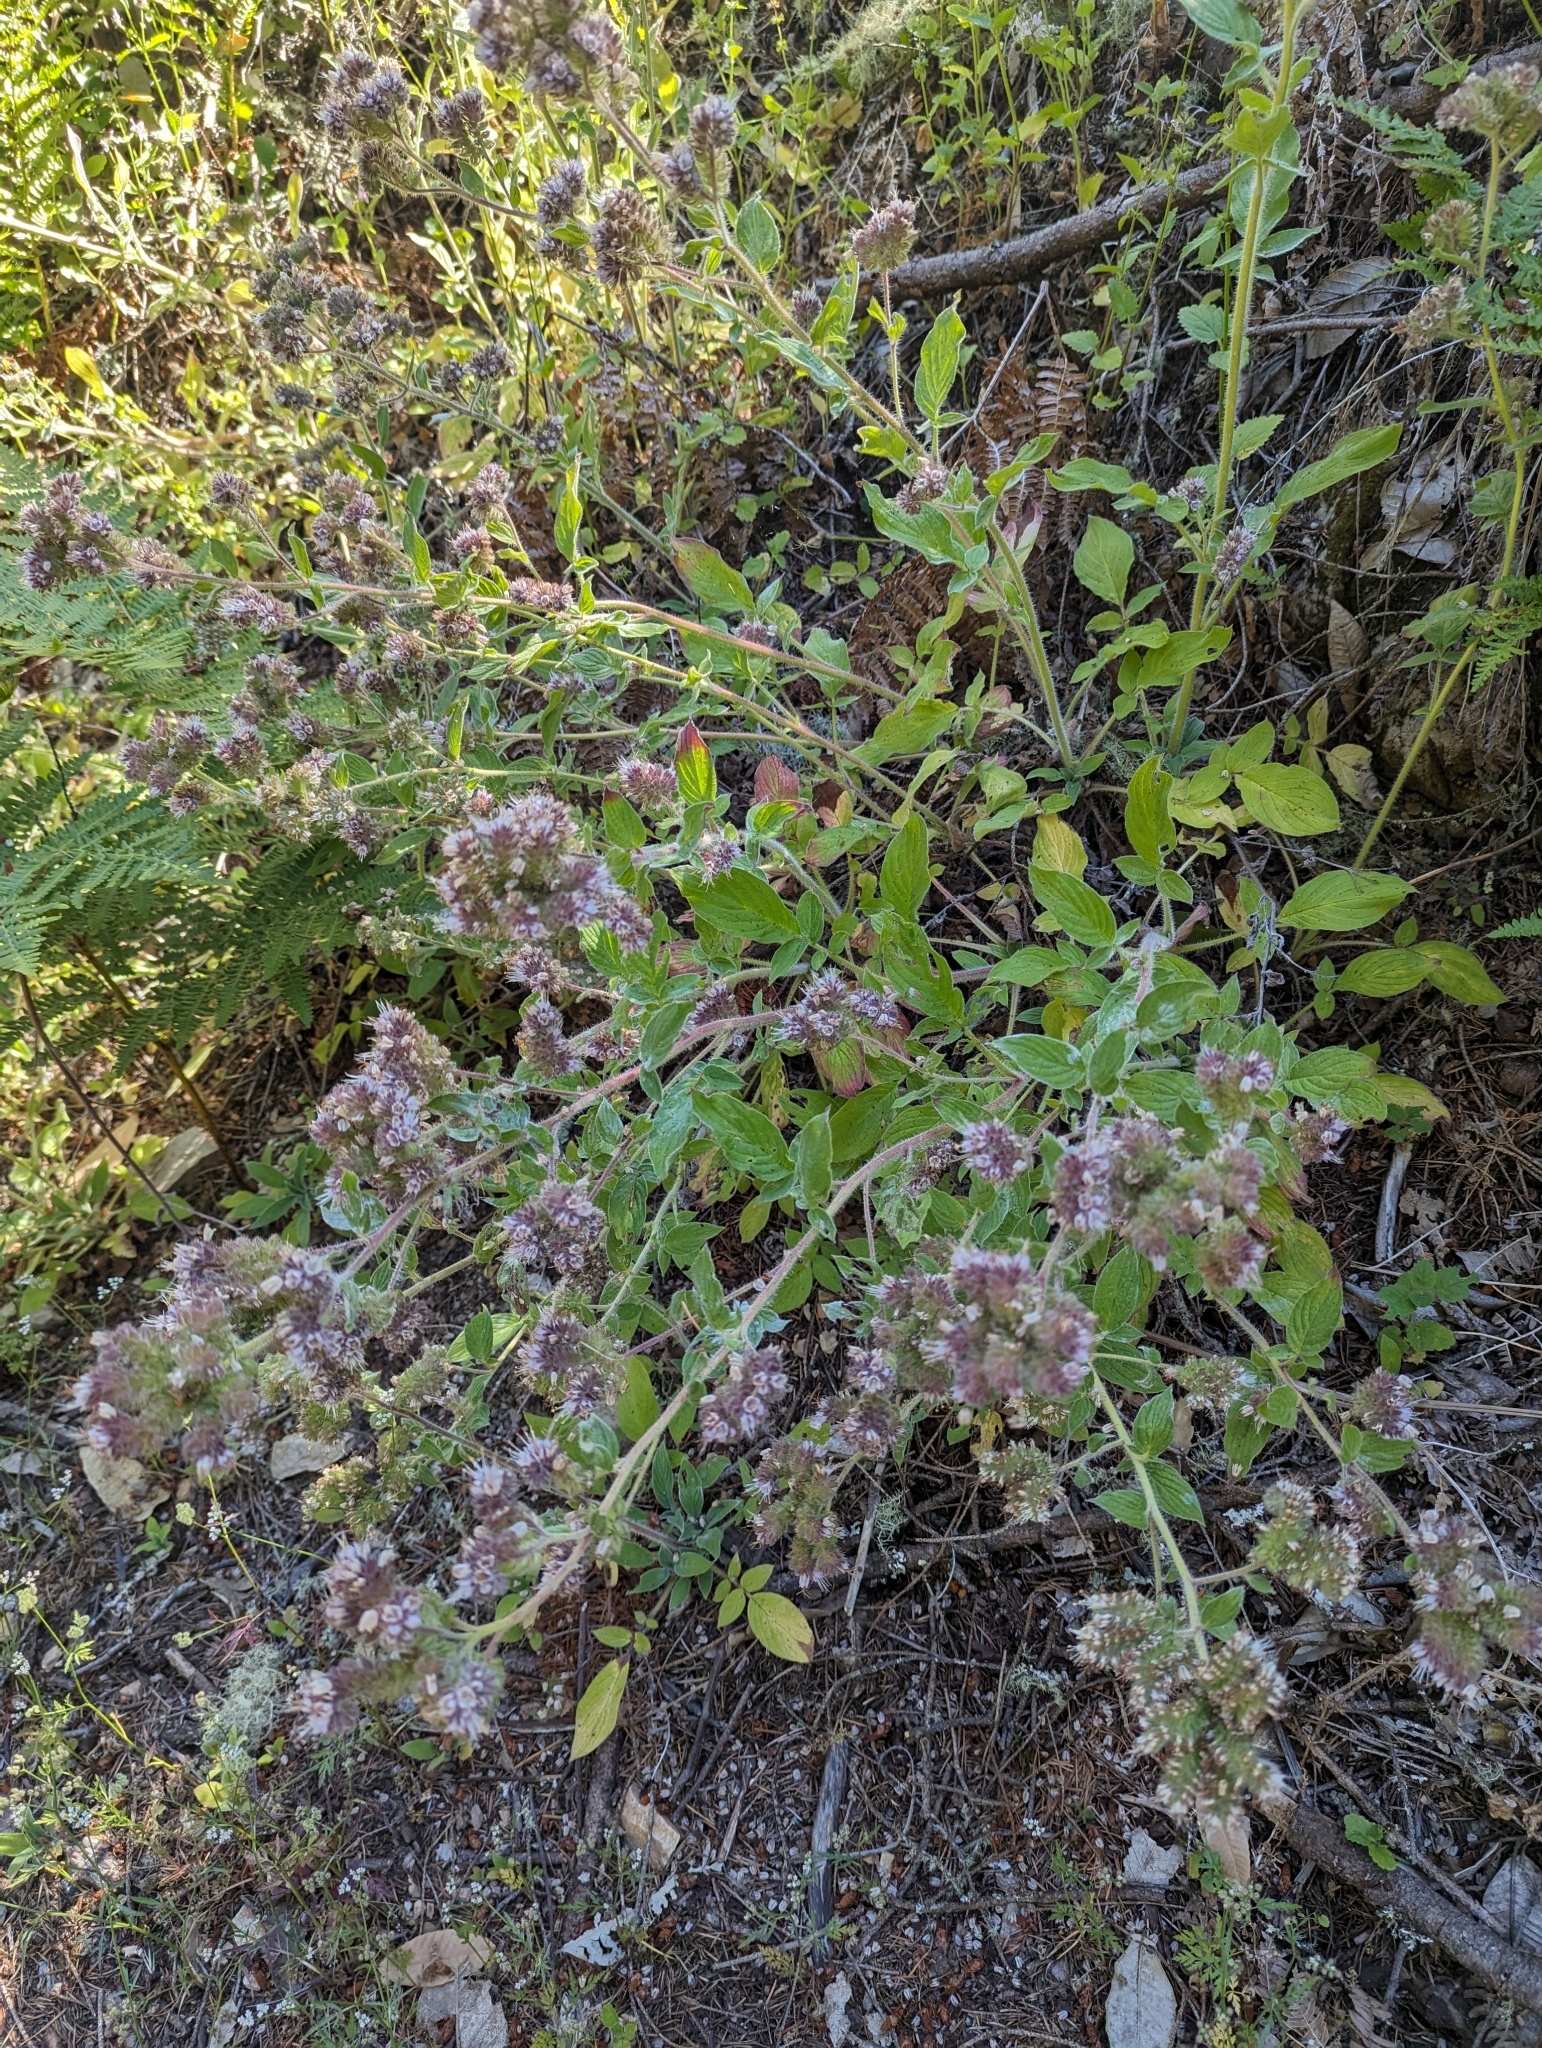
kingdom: Plantae
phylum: Tracheophyta
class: Magnoliopsida
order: Boraginales
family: Hydrophyllaceae
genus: Phacelia
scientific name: Phacelia nemoralis
